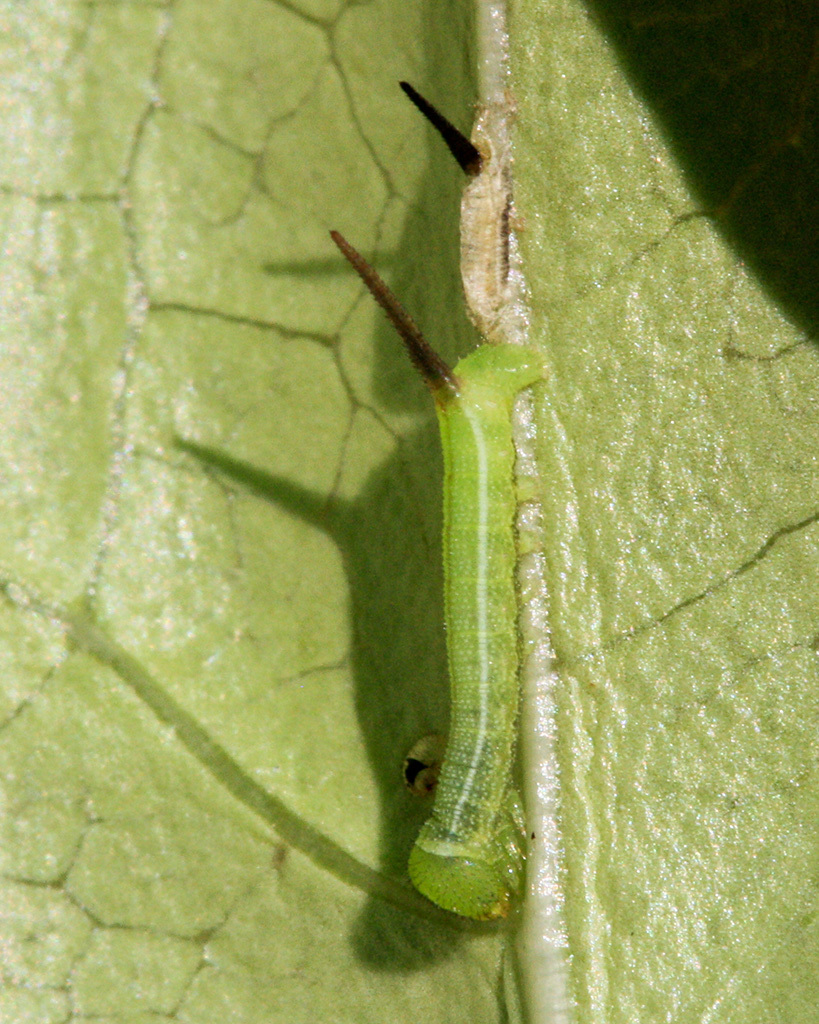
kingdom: Animalia
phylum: Arthropoda
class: Insecta
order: Lepidoptera
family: Sphingidae
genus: Macroglossum
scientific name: Macroglossum trochilus
